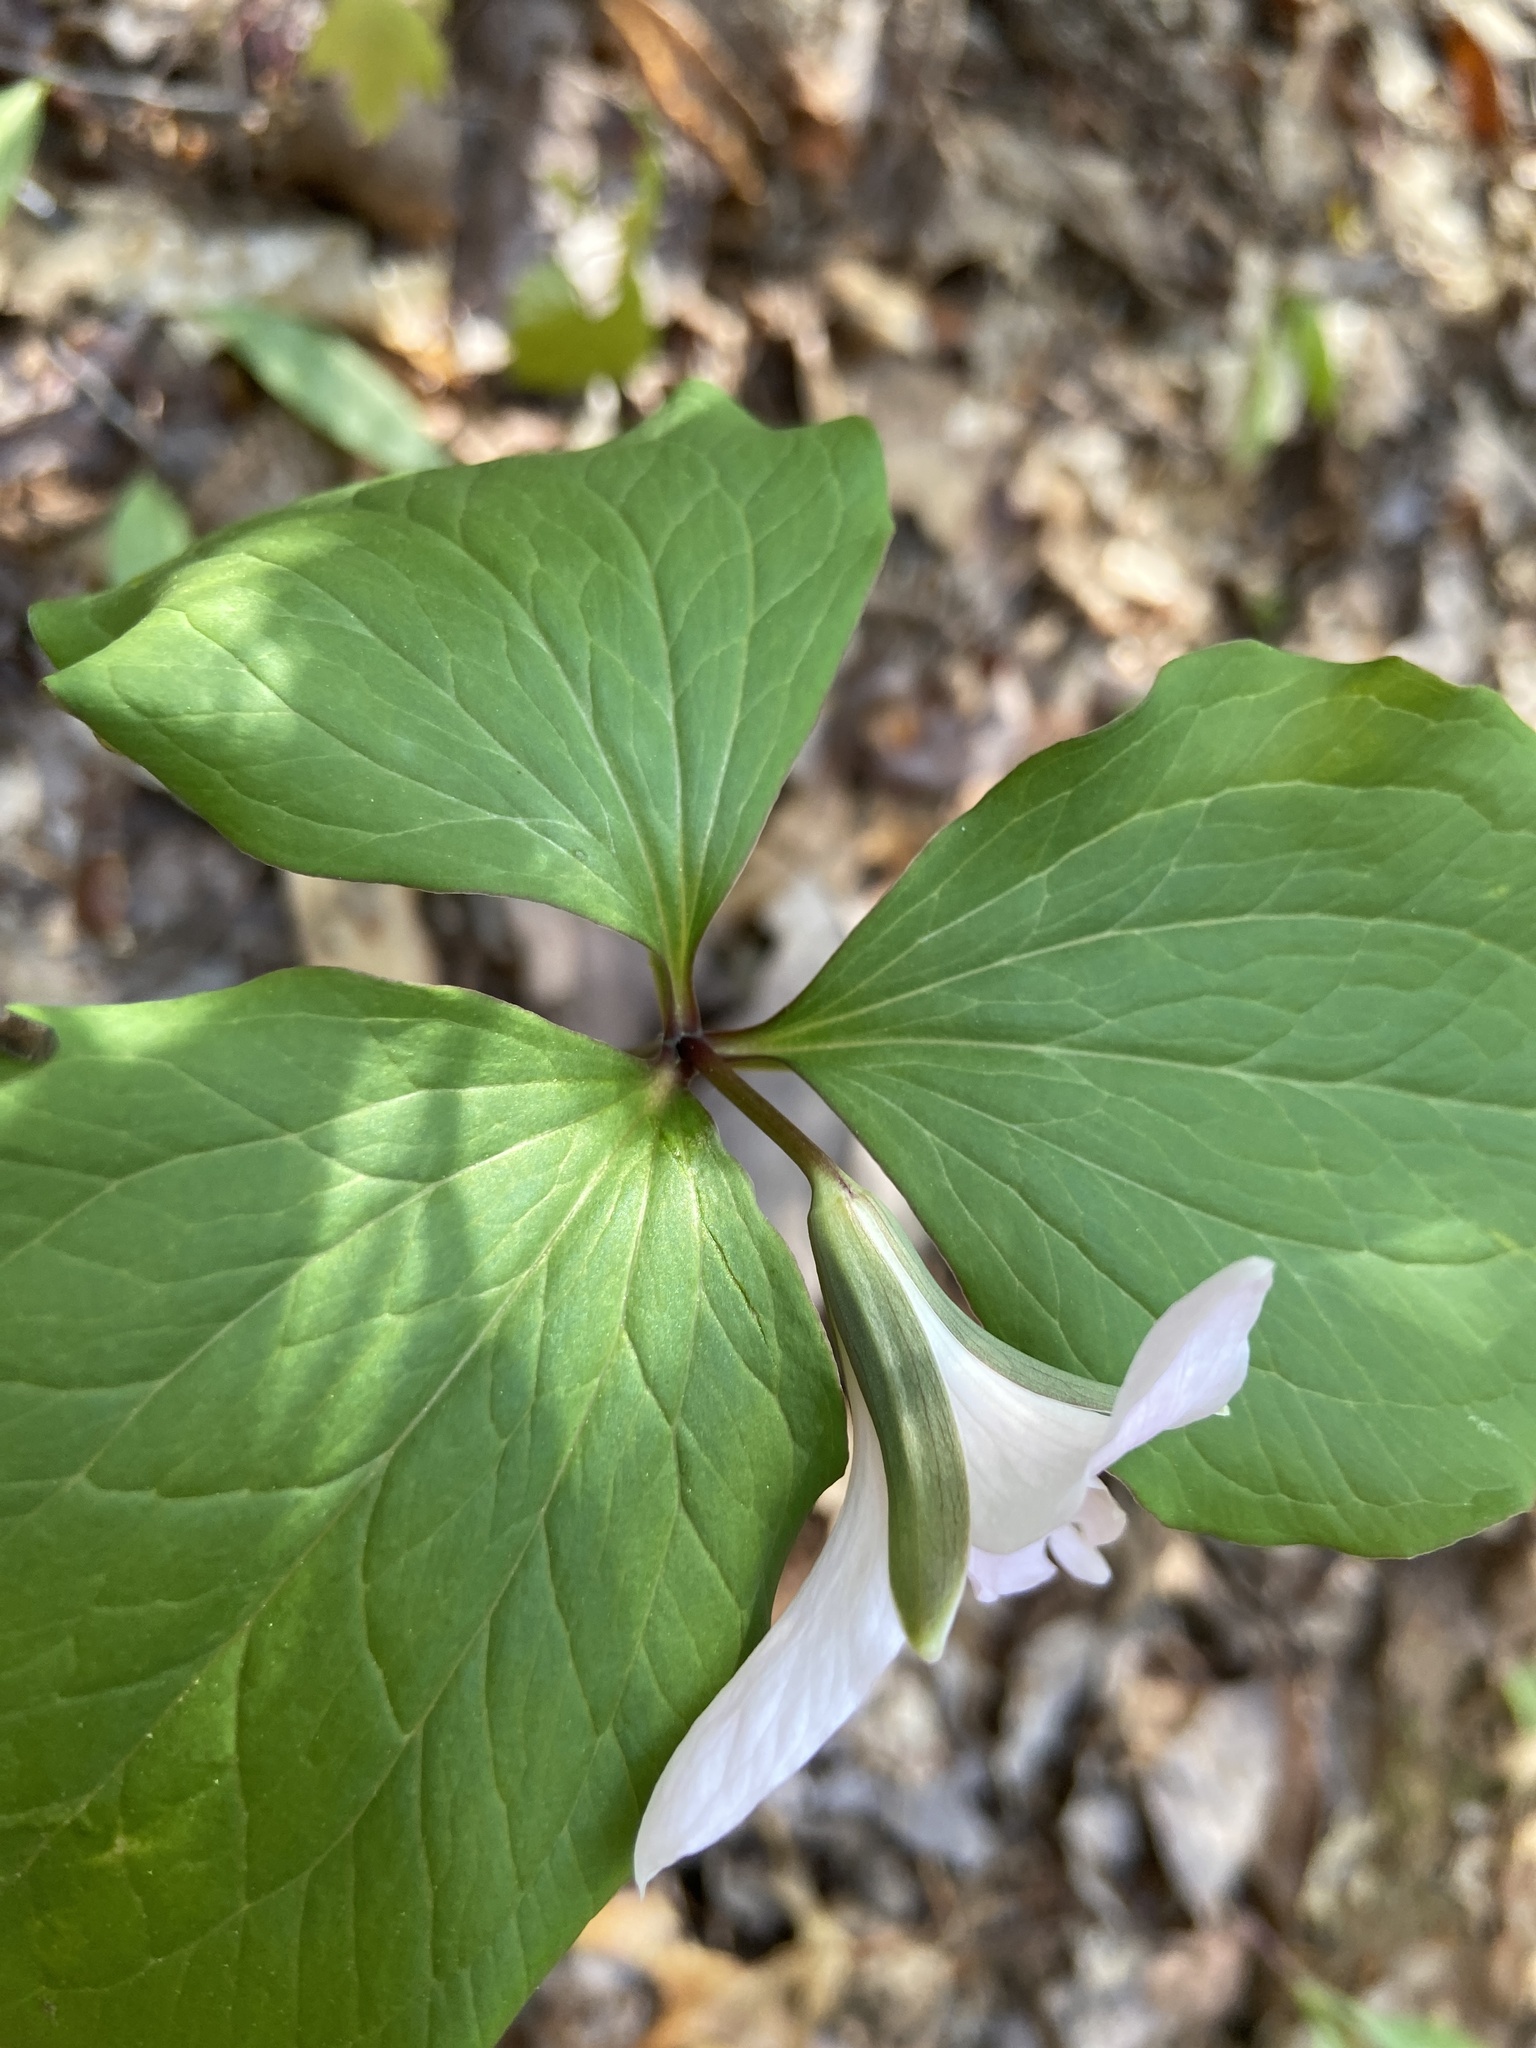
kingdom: Plantae
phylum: Tracheophyta
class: Liliopsida
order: Liliales
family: Melanthiaceae
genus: Trillium
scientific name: Trillium catesbaei
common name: Bashful trillium
